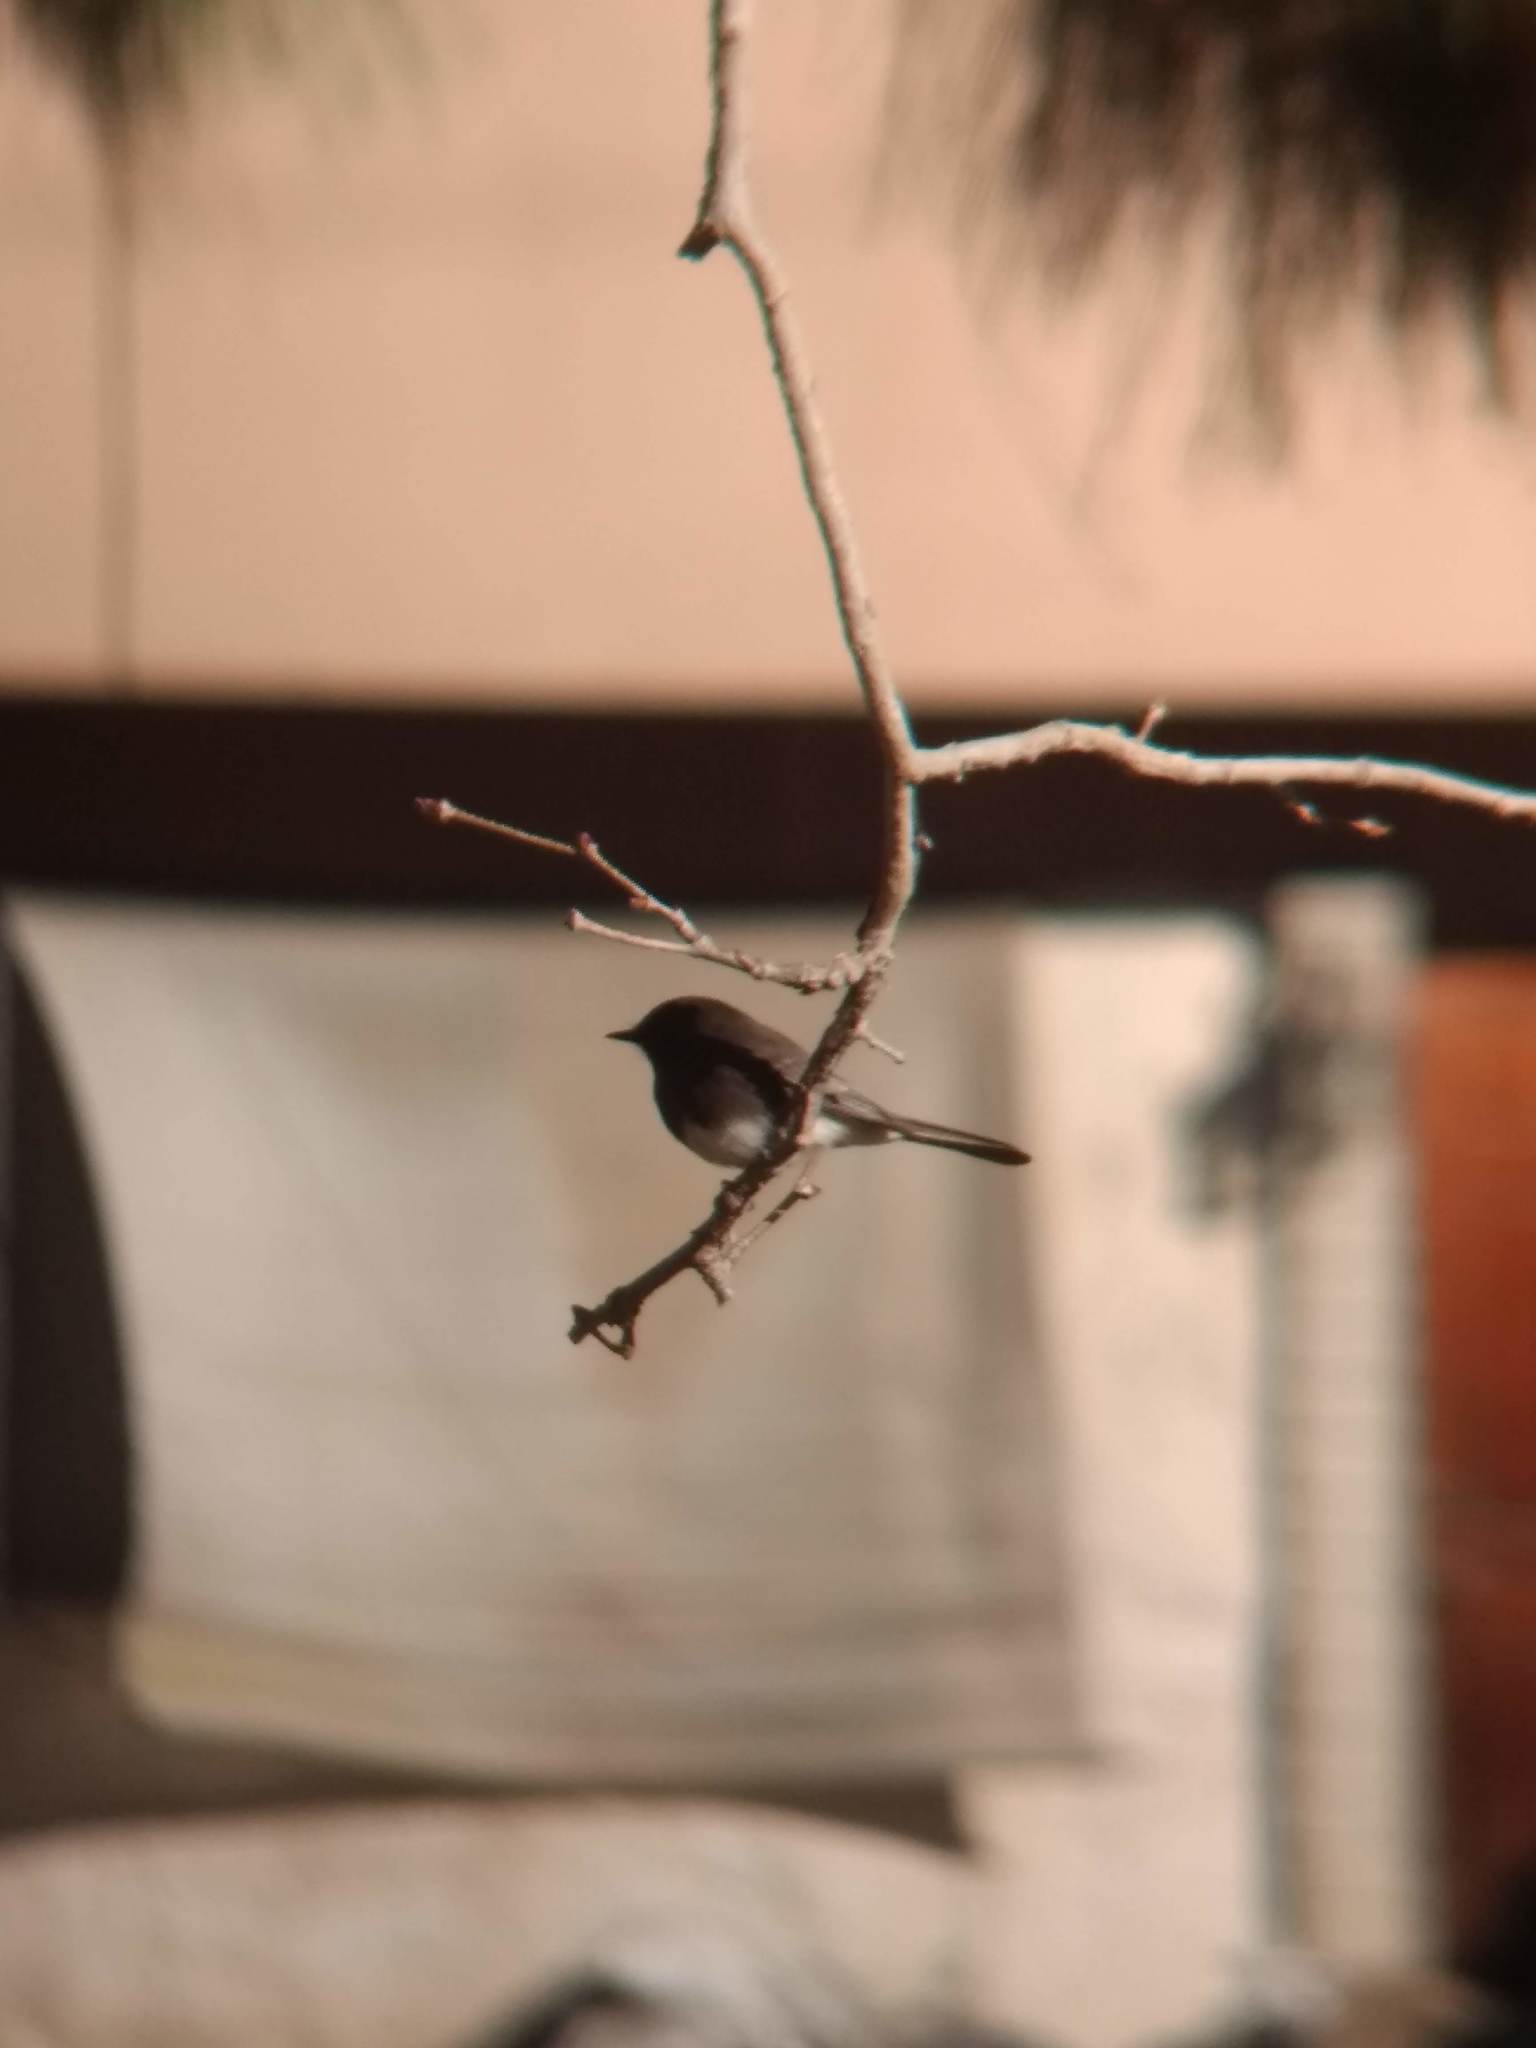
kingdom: Animalia
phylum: Chordata
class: Aves
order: Passeriformes
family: Tyrannidae
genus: Sayornis
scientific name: Sayornis nigricans
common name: Black phoebe
